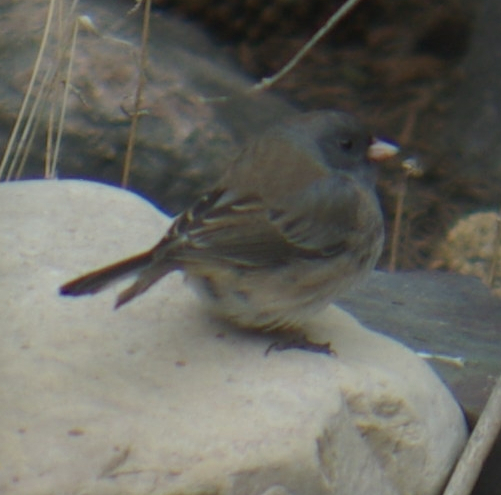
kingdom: Animalia
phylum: Chordata
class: Aves
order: Passeriformes
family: Passerellidae
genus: Junco
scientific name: Junco hyemalis
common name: Dark-eyed junco
